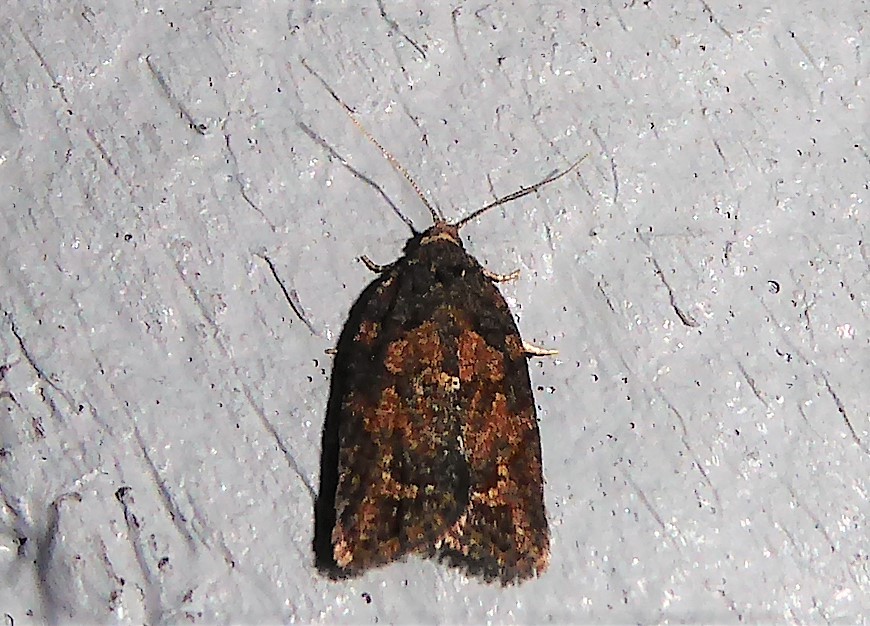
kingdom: Animalia
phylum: Arthropoda
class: Insecta
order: Lepidoptera
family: Tortricidae
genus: Capua
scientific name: Capua intractana
